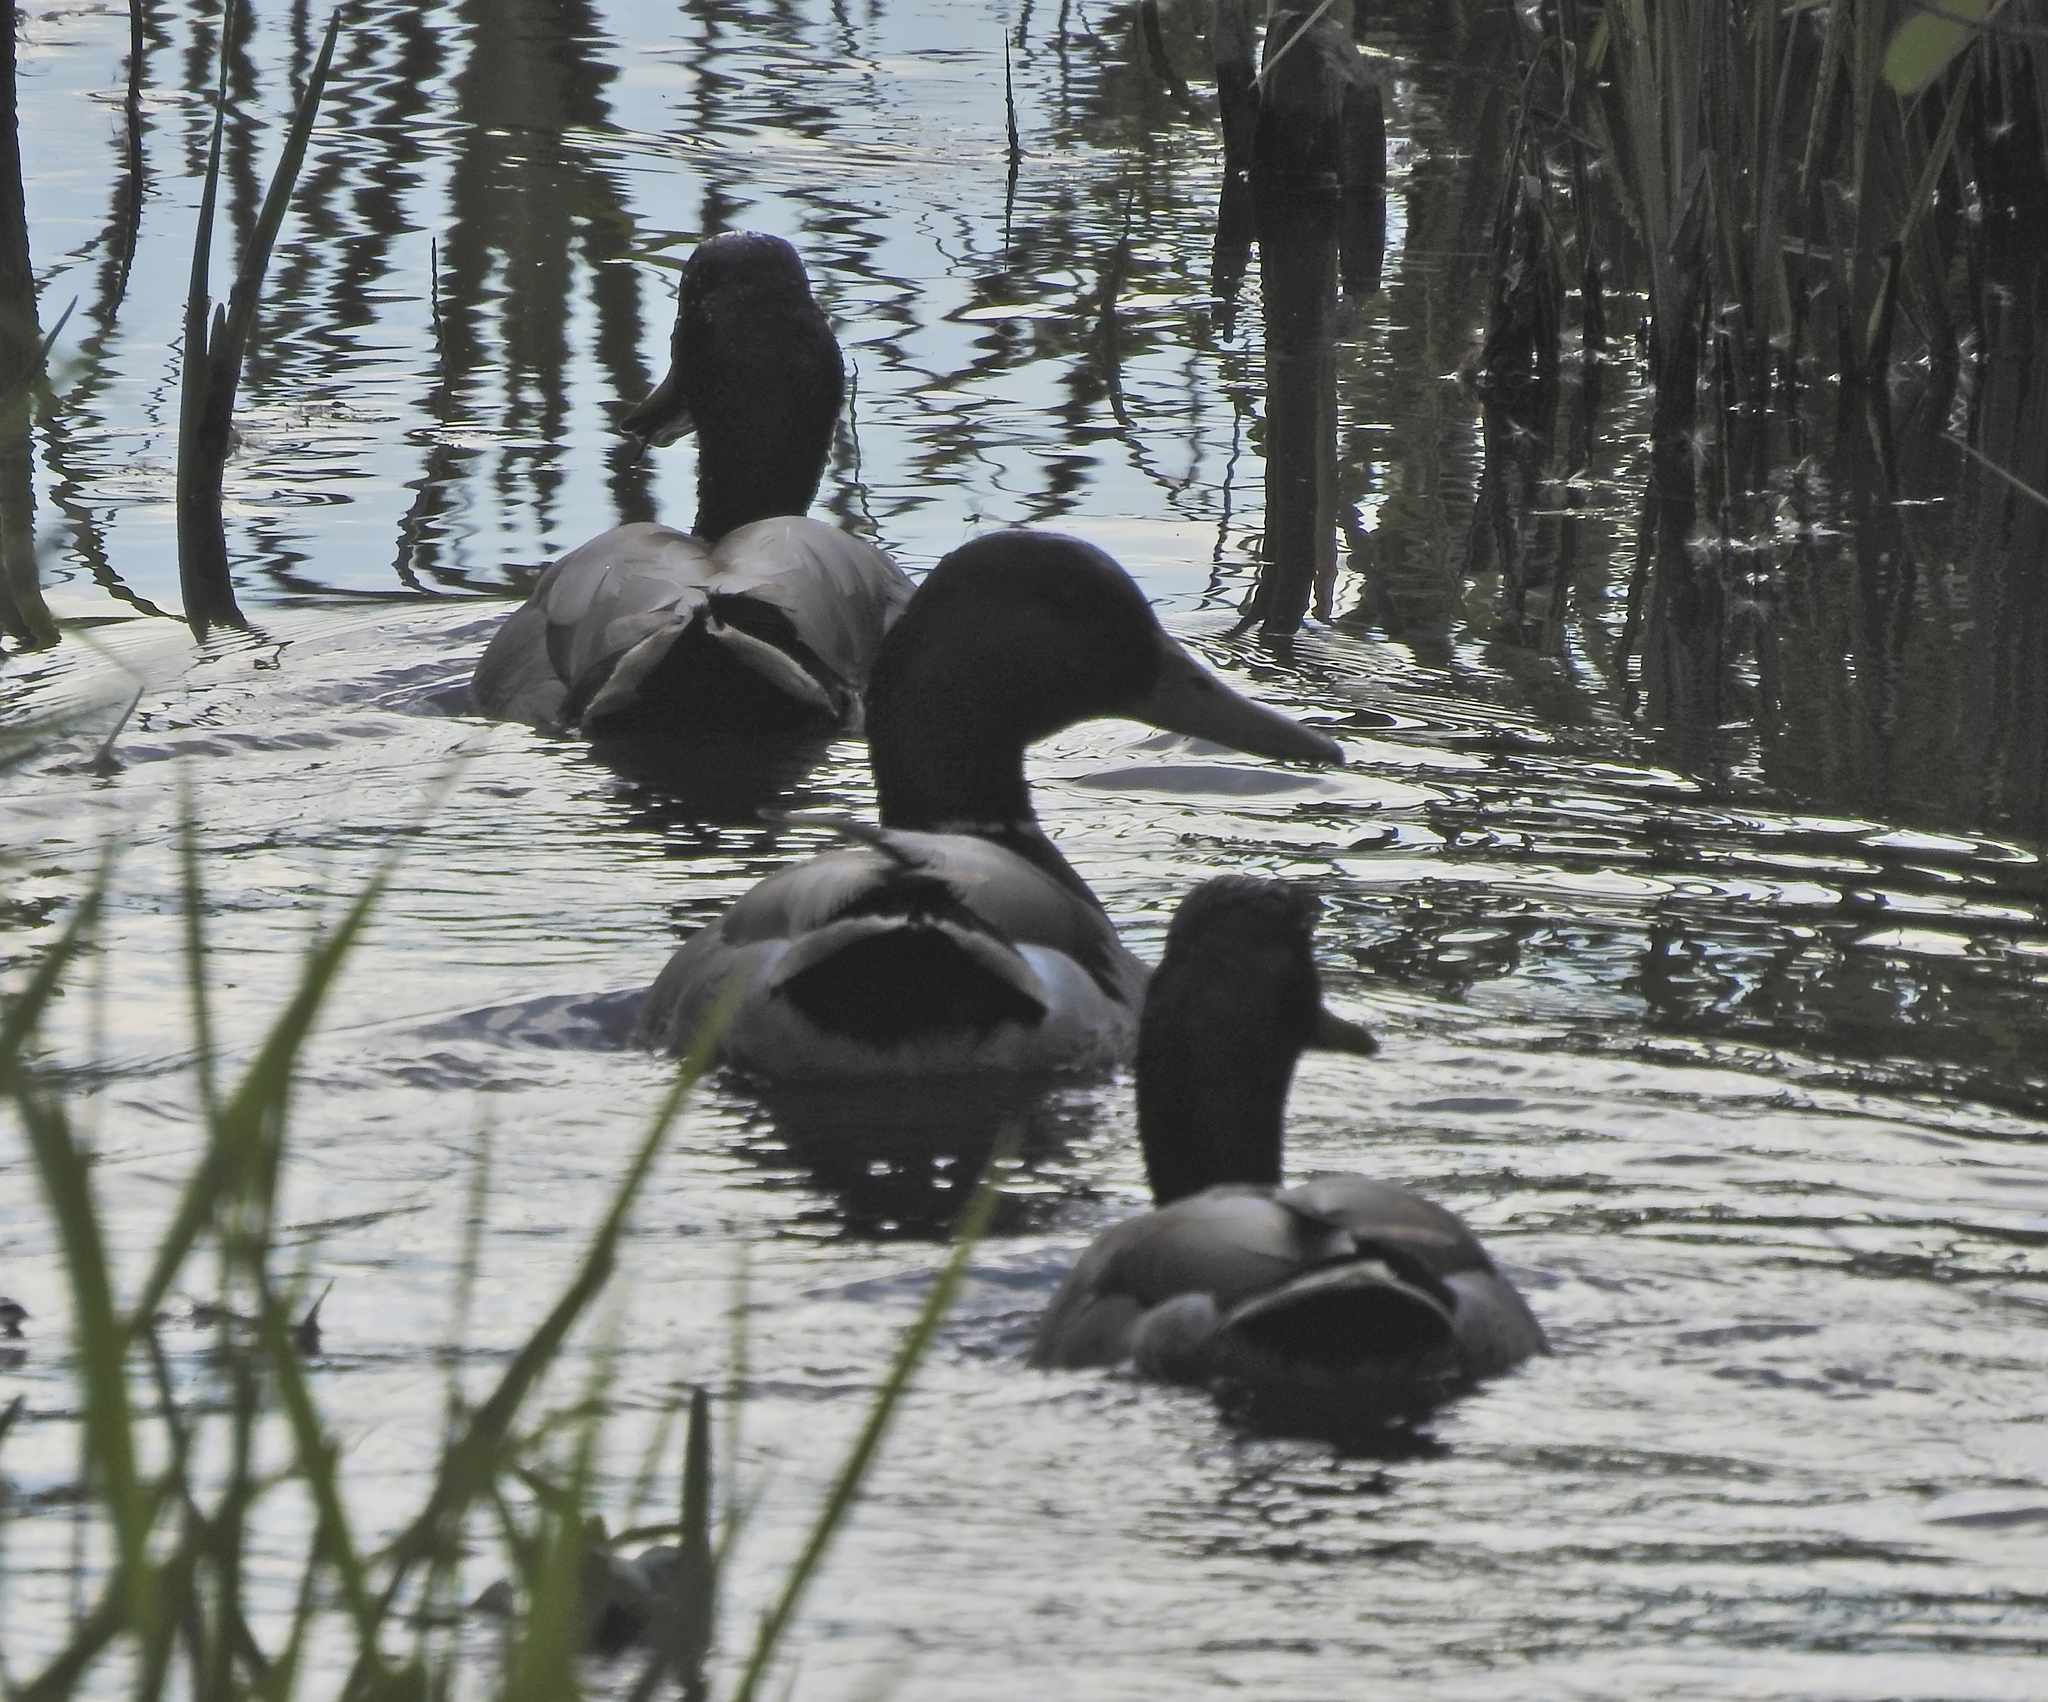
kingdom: Animalia
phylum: Chordata
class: Aves
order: Anseriformes
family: Anatidae
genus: Anas
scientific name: Anas platyrhynchos
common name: Mallard
